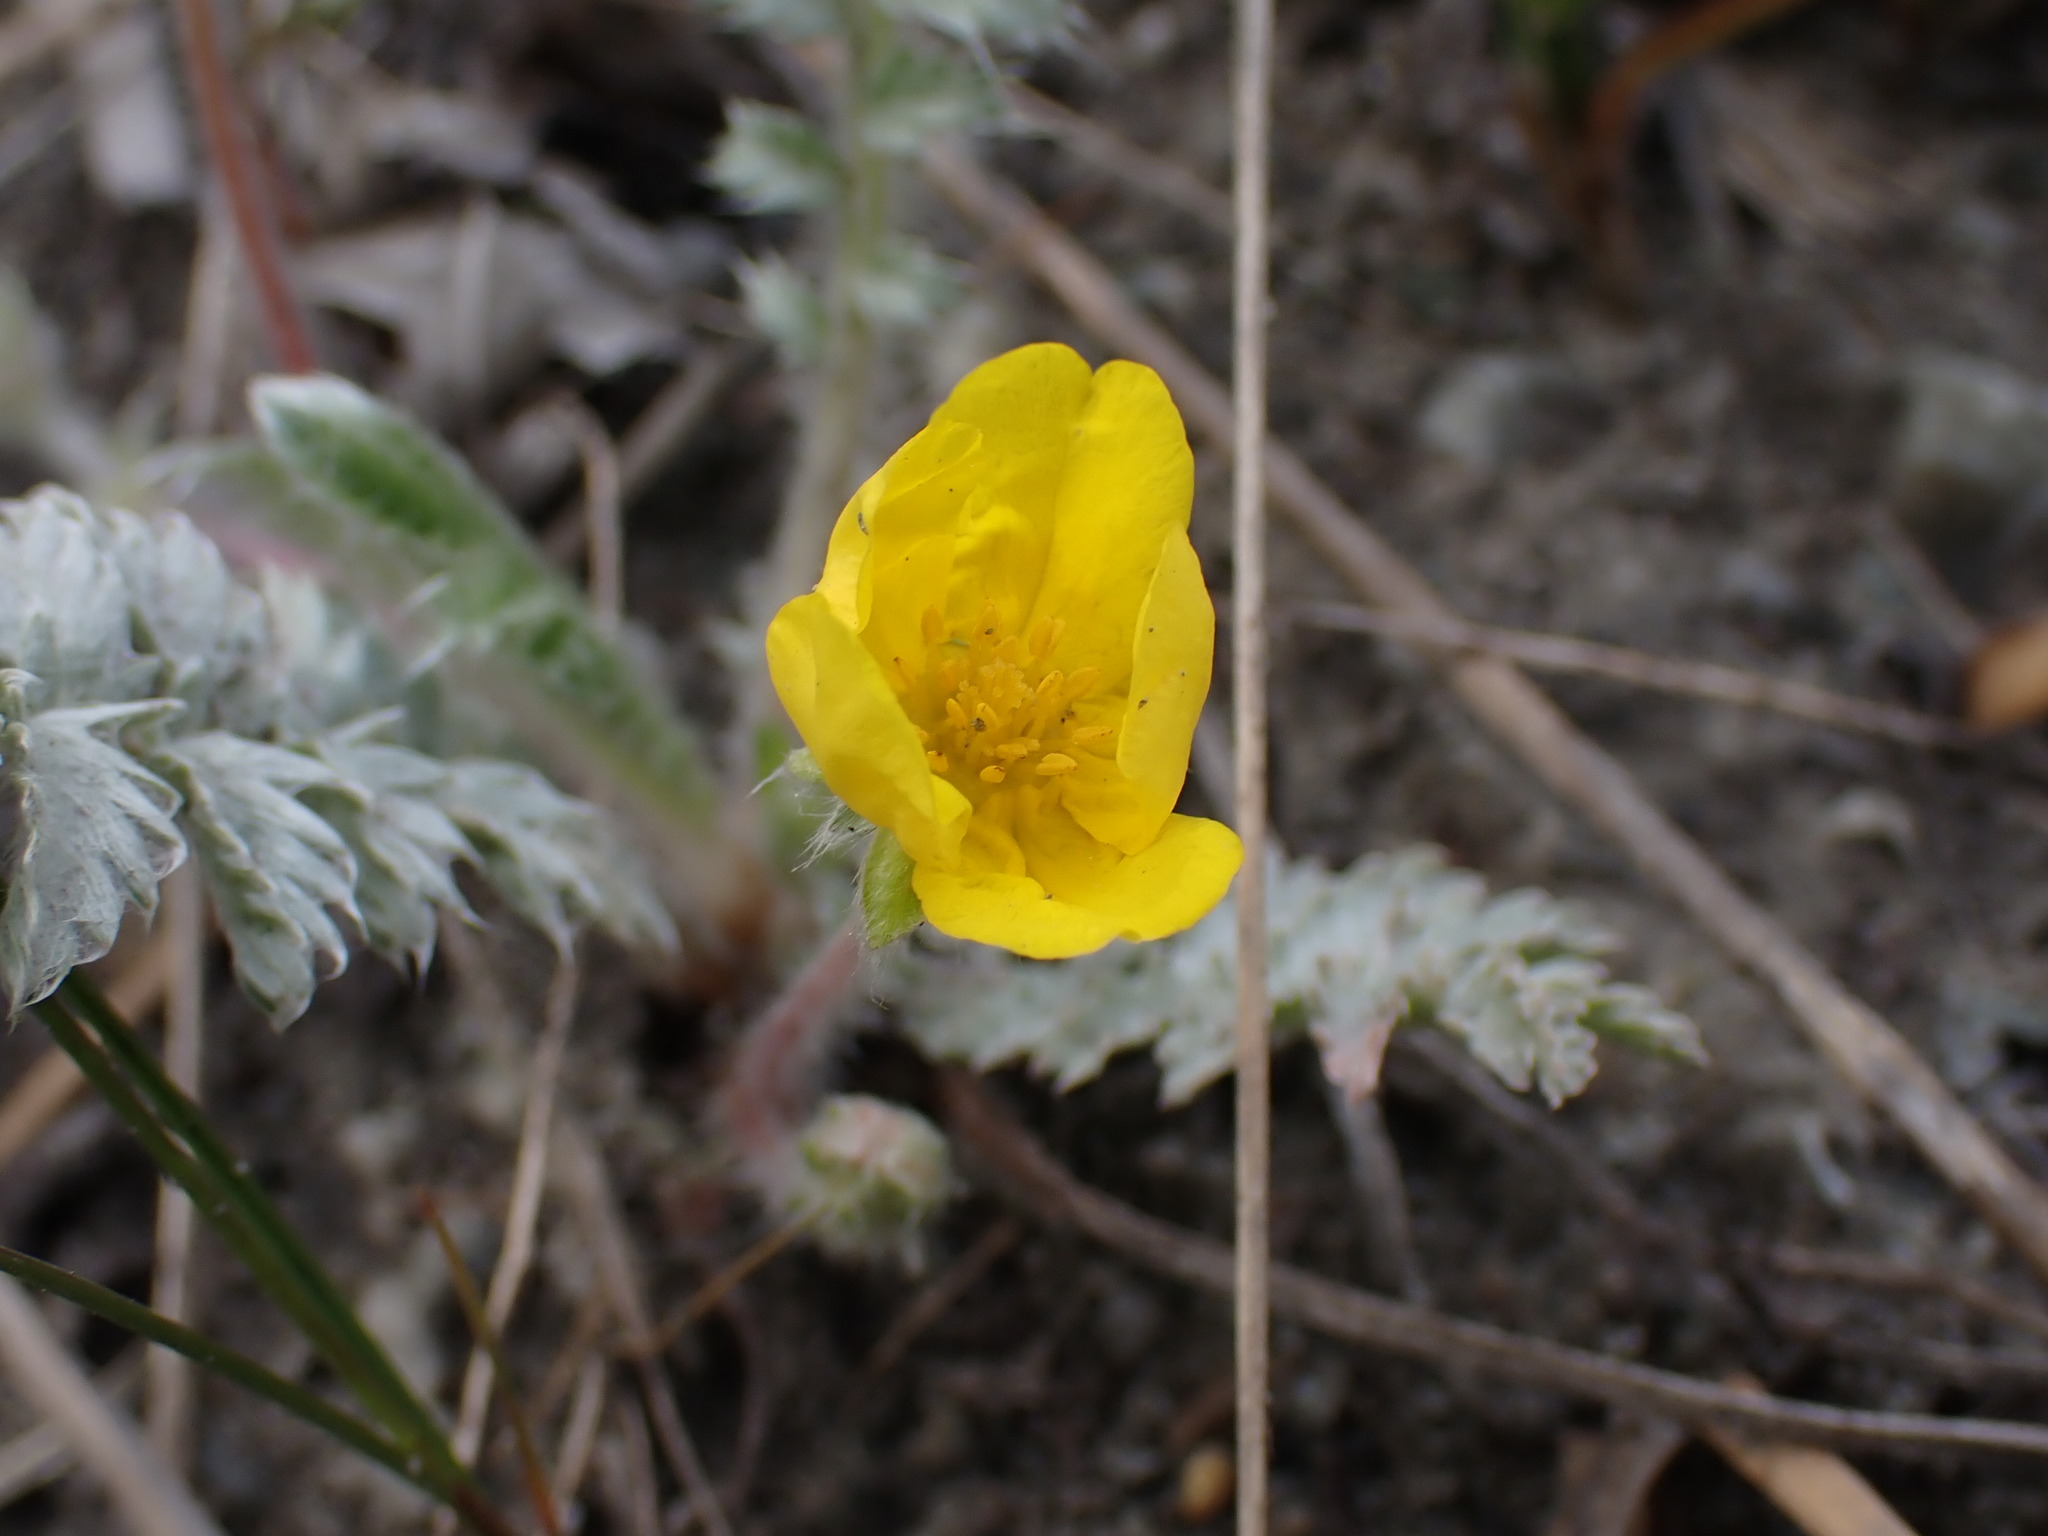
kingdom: Plantae
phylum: Tracheophyta
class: Magnoliopsida
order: Rosales
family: Rosaceae
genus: Argentina
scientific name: Argentina anserina
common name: Common silverweed
